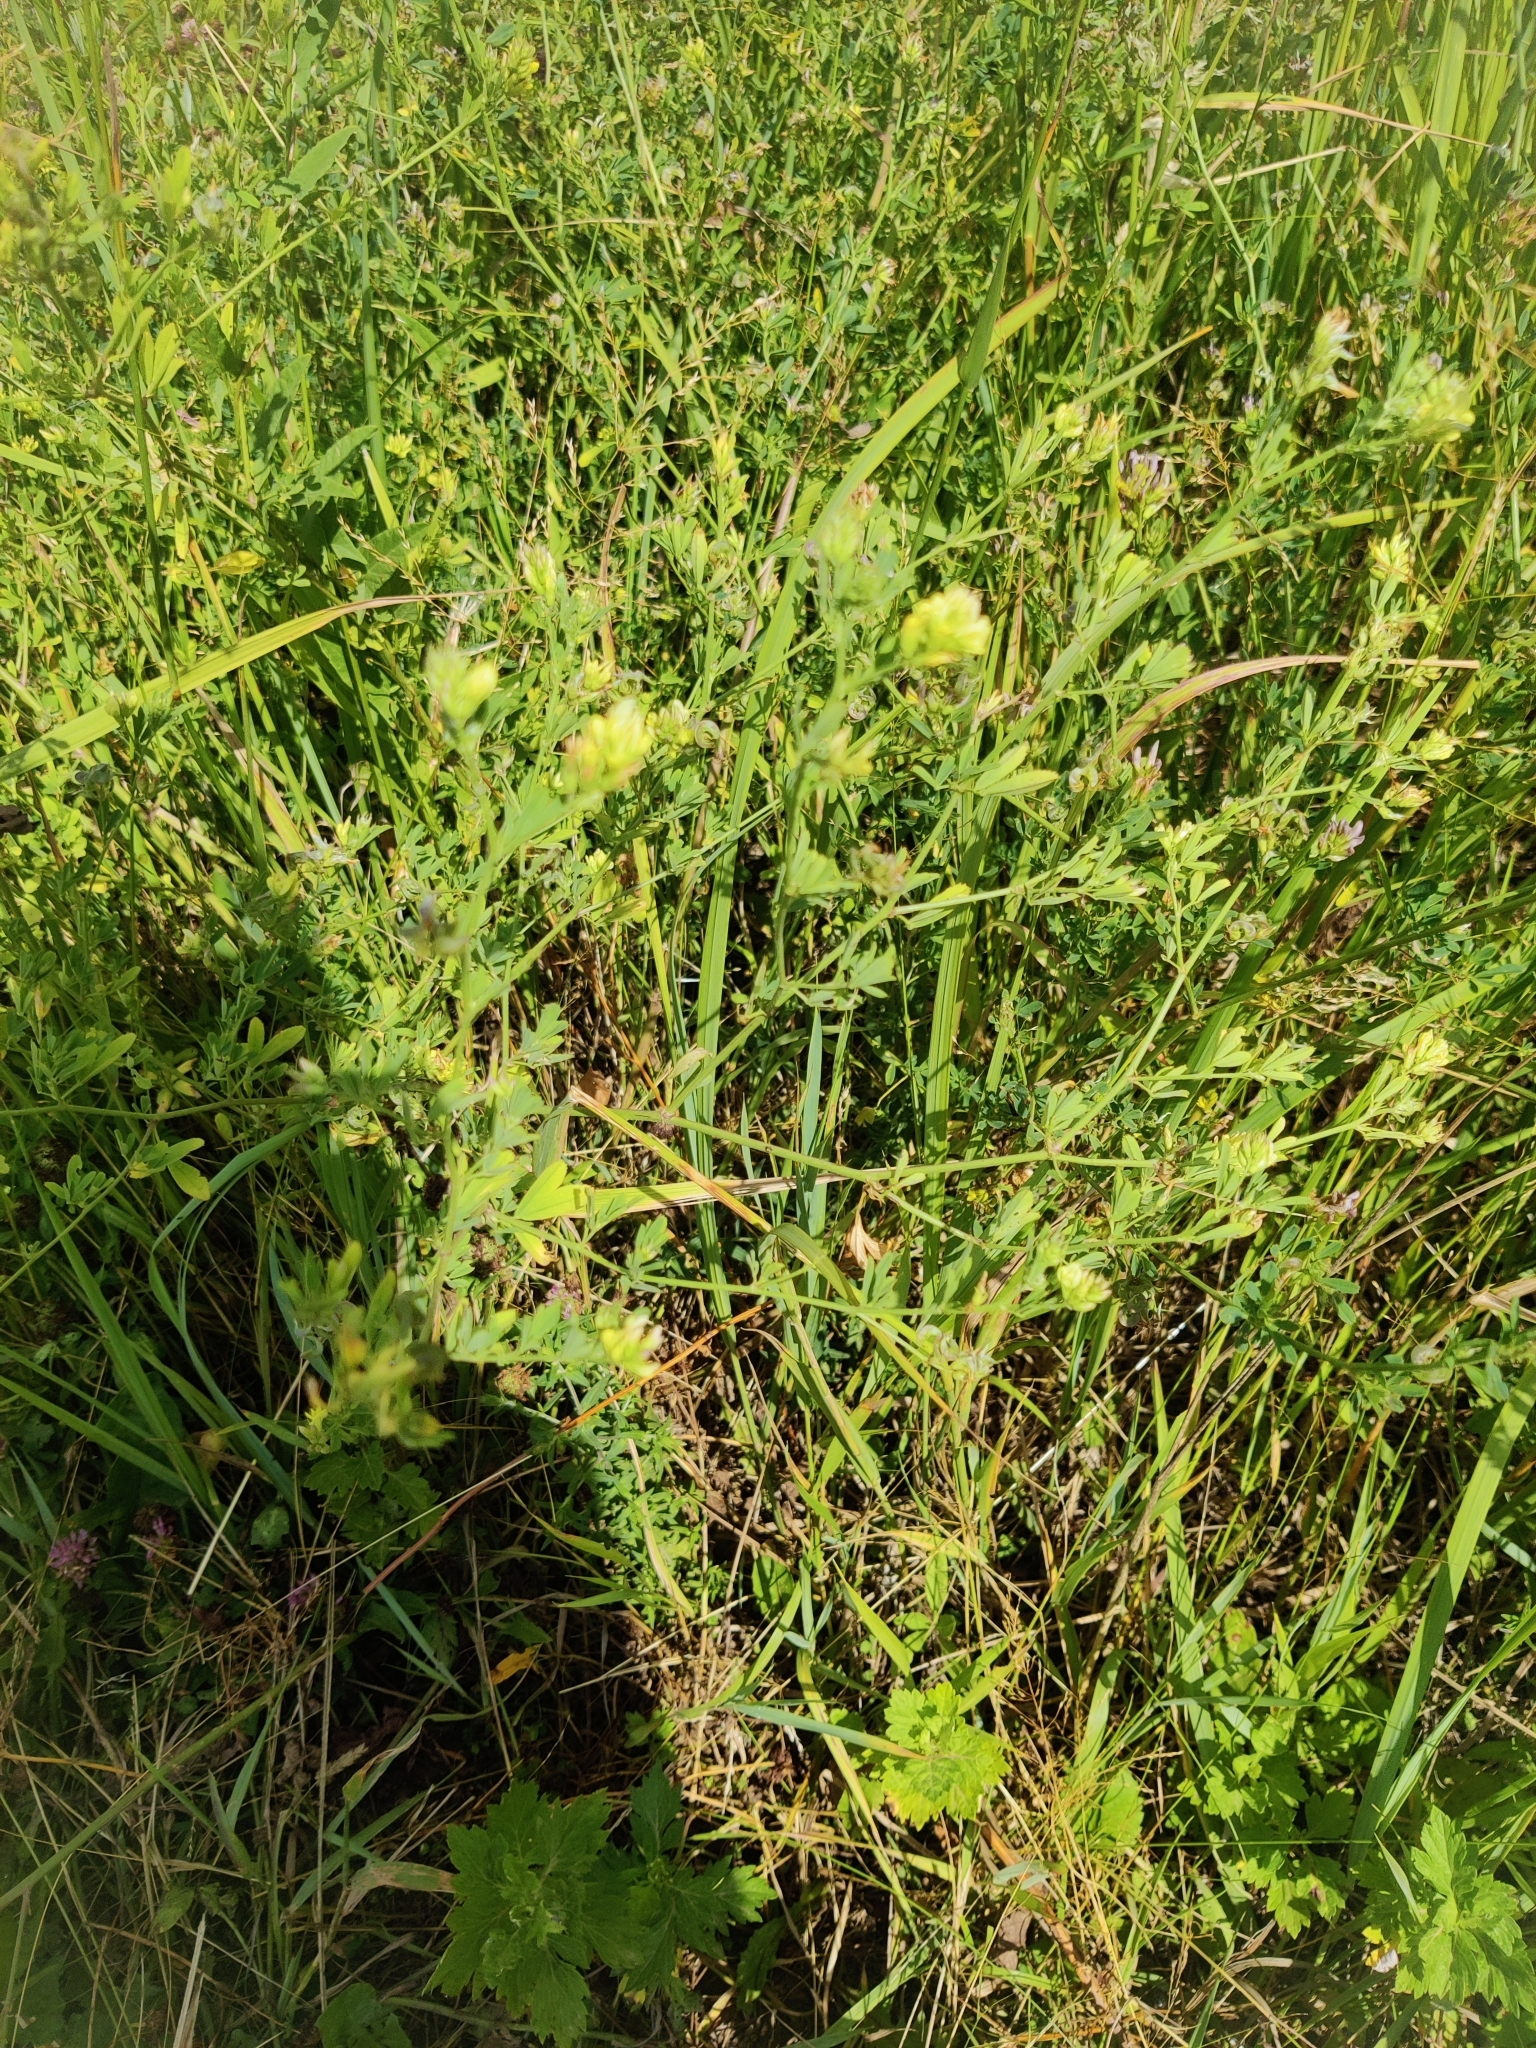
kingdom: Plantae
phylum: Tracheophyta
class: Magnoliopsida
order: Fabales
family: Fabaceae
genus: Medicago
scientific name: Medicago falcata
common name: Sickle medick
